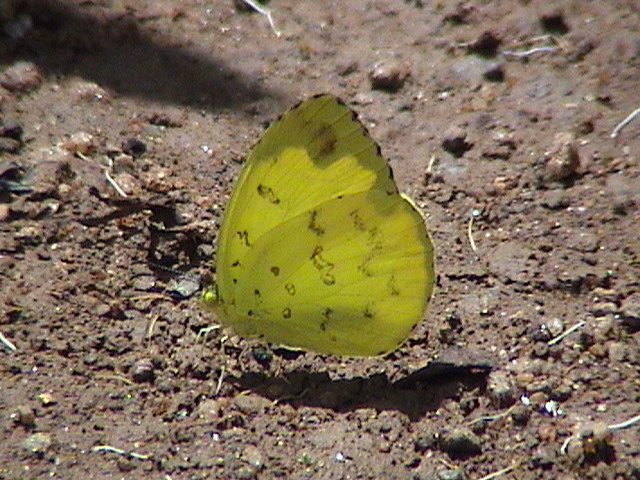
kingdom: Animalia
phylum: Arthropoda
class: Insecta
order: Lepidoptera
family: Pieridae
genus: Eurema
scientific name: Eurema blanda
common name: Three-spot grass yellow
